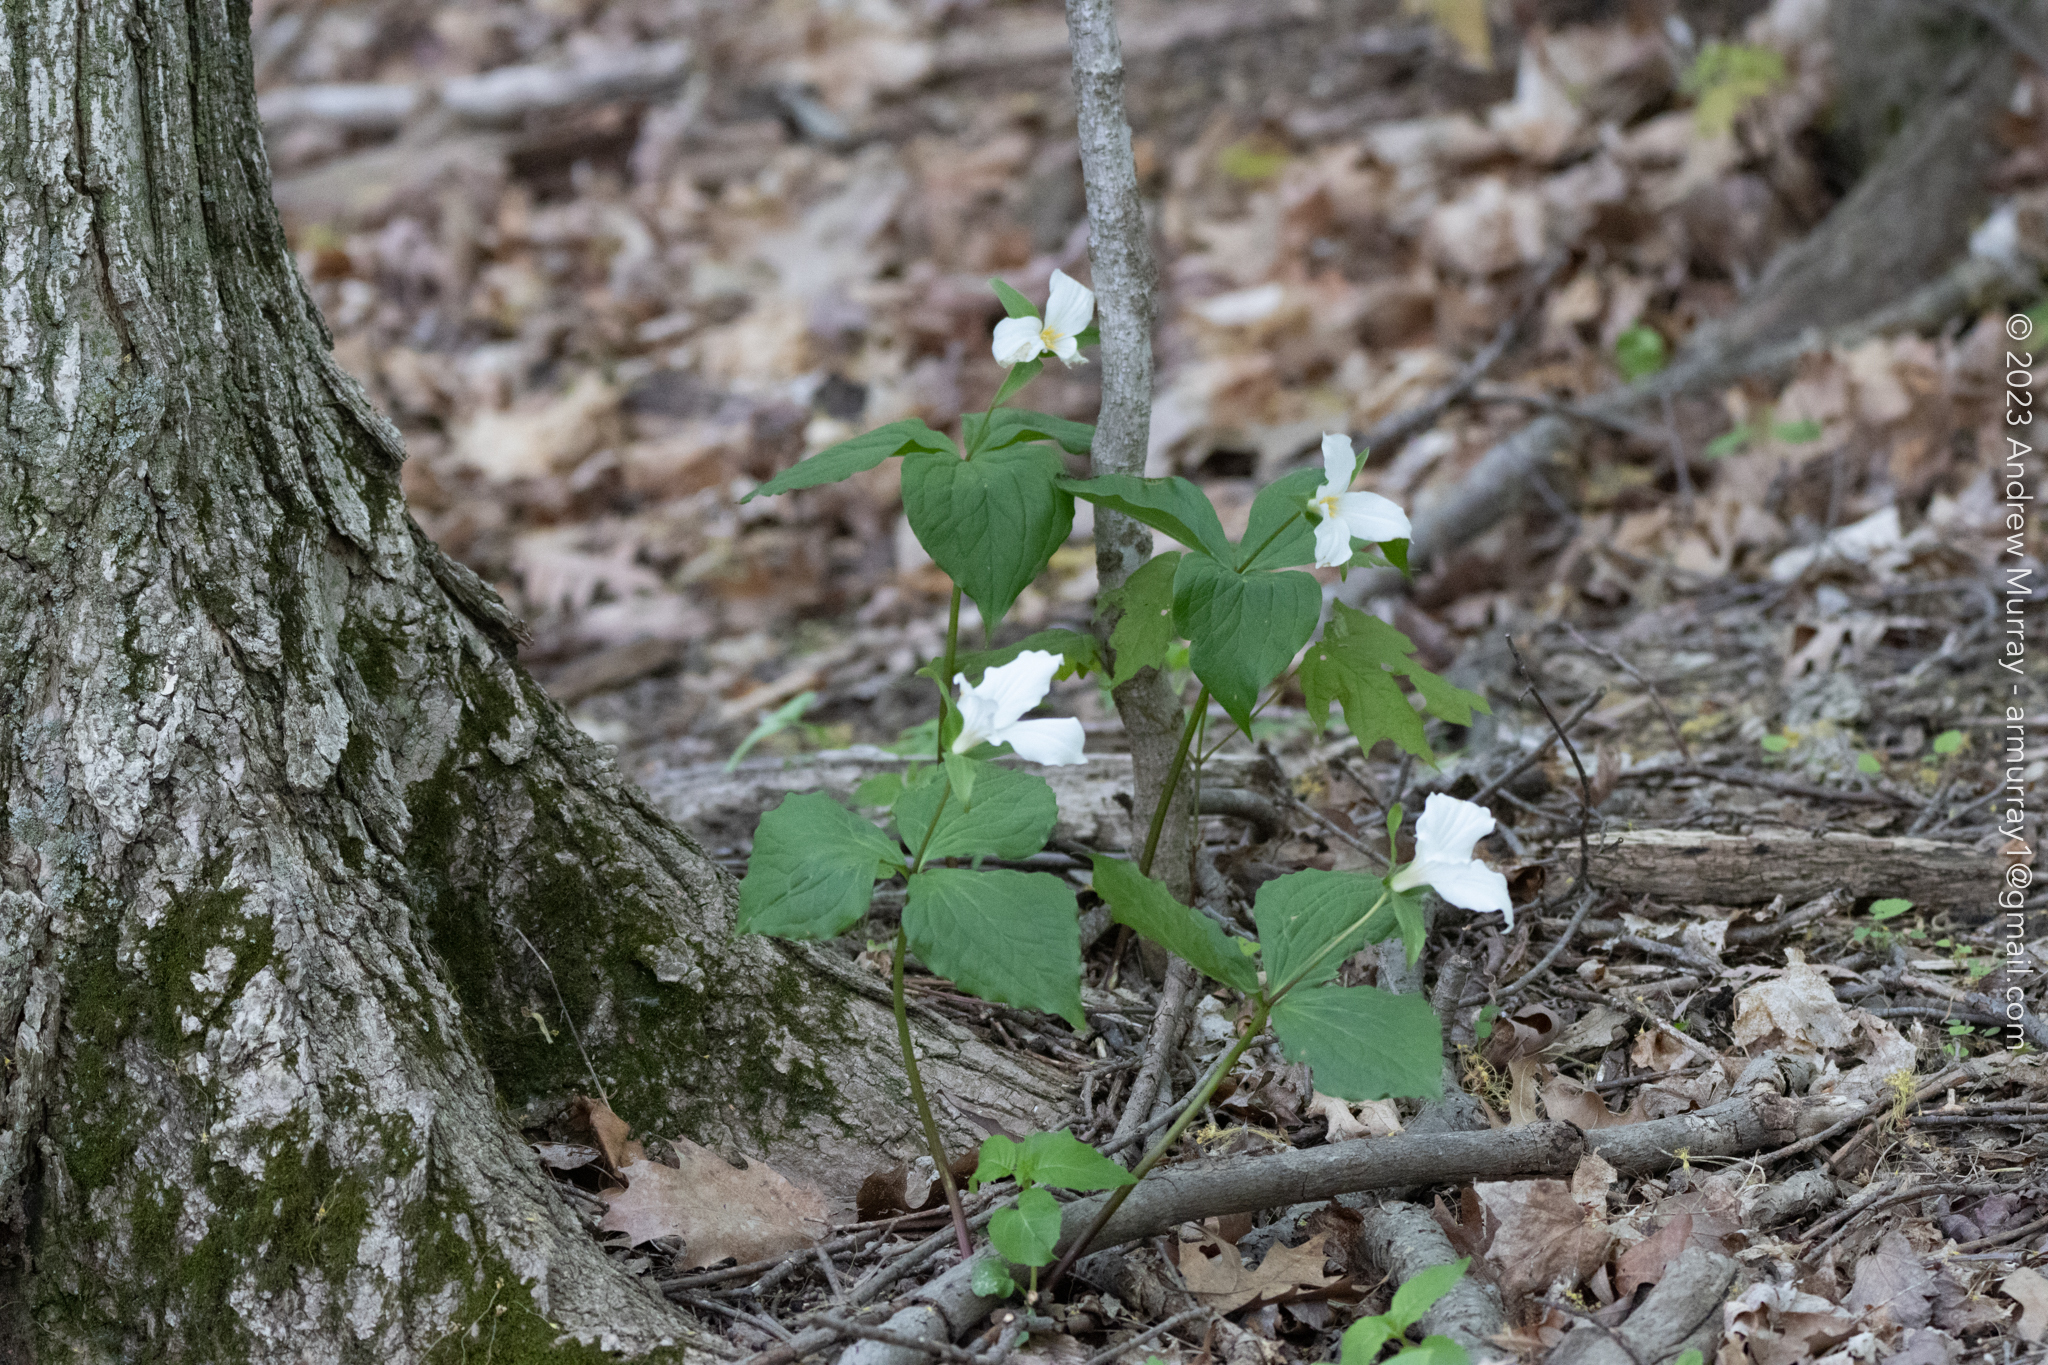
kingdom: Plantae
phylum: Tracheophyta
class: Liliopsida
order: Liliales
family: Melanthiaceae
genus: Trillium
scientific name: Trillium grandiflorum
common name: Great white trillium
